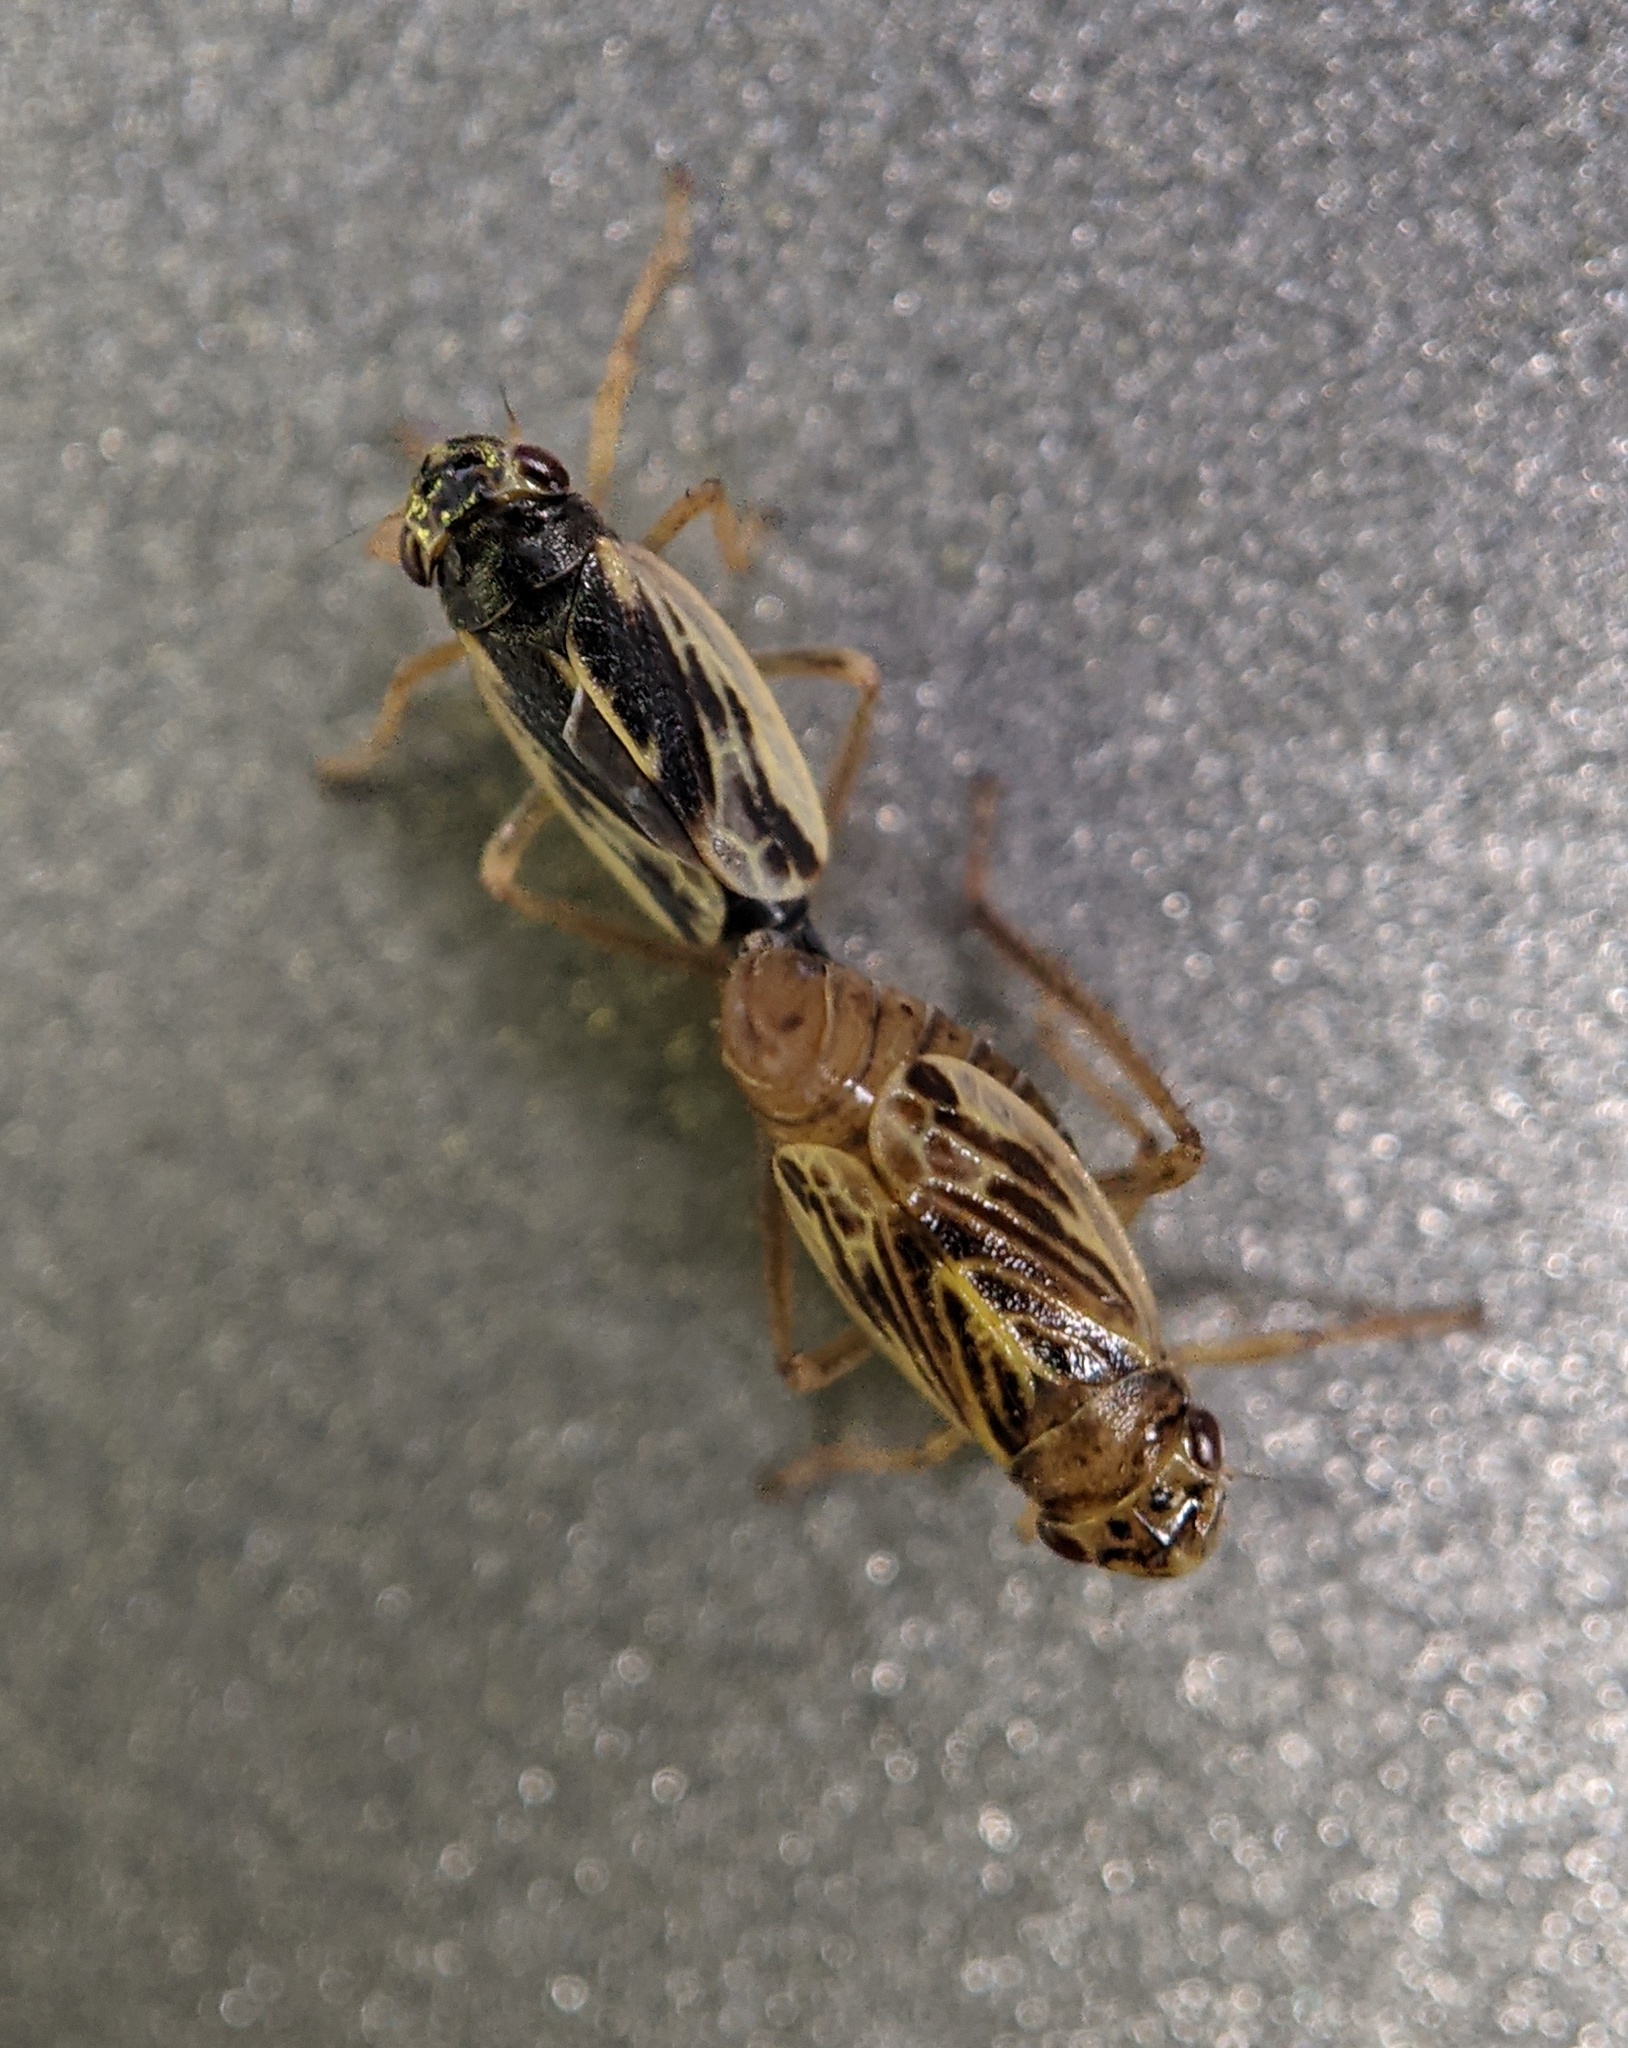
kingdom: Animalia
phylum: Arthropoda
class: Insecta
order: Hemiptera
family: Cicadellidae
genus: Evacanthus
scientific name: Evacanthus grandipes
